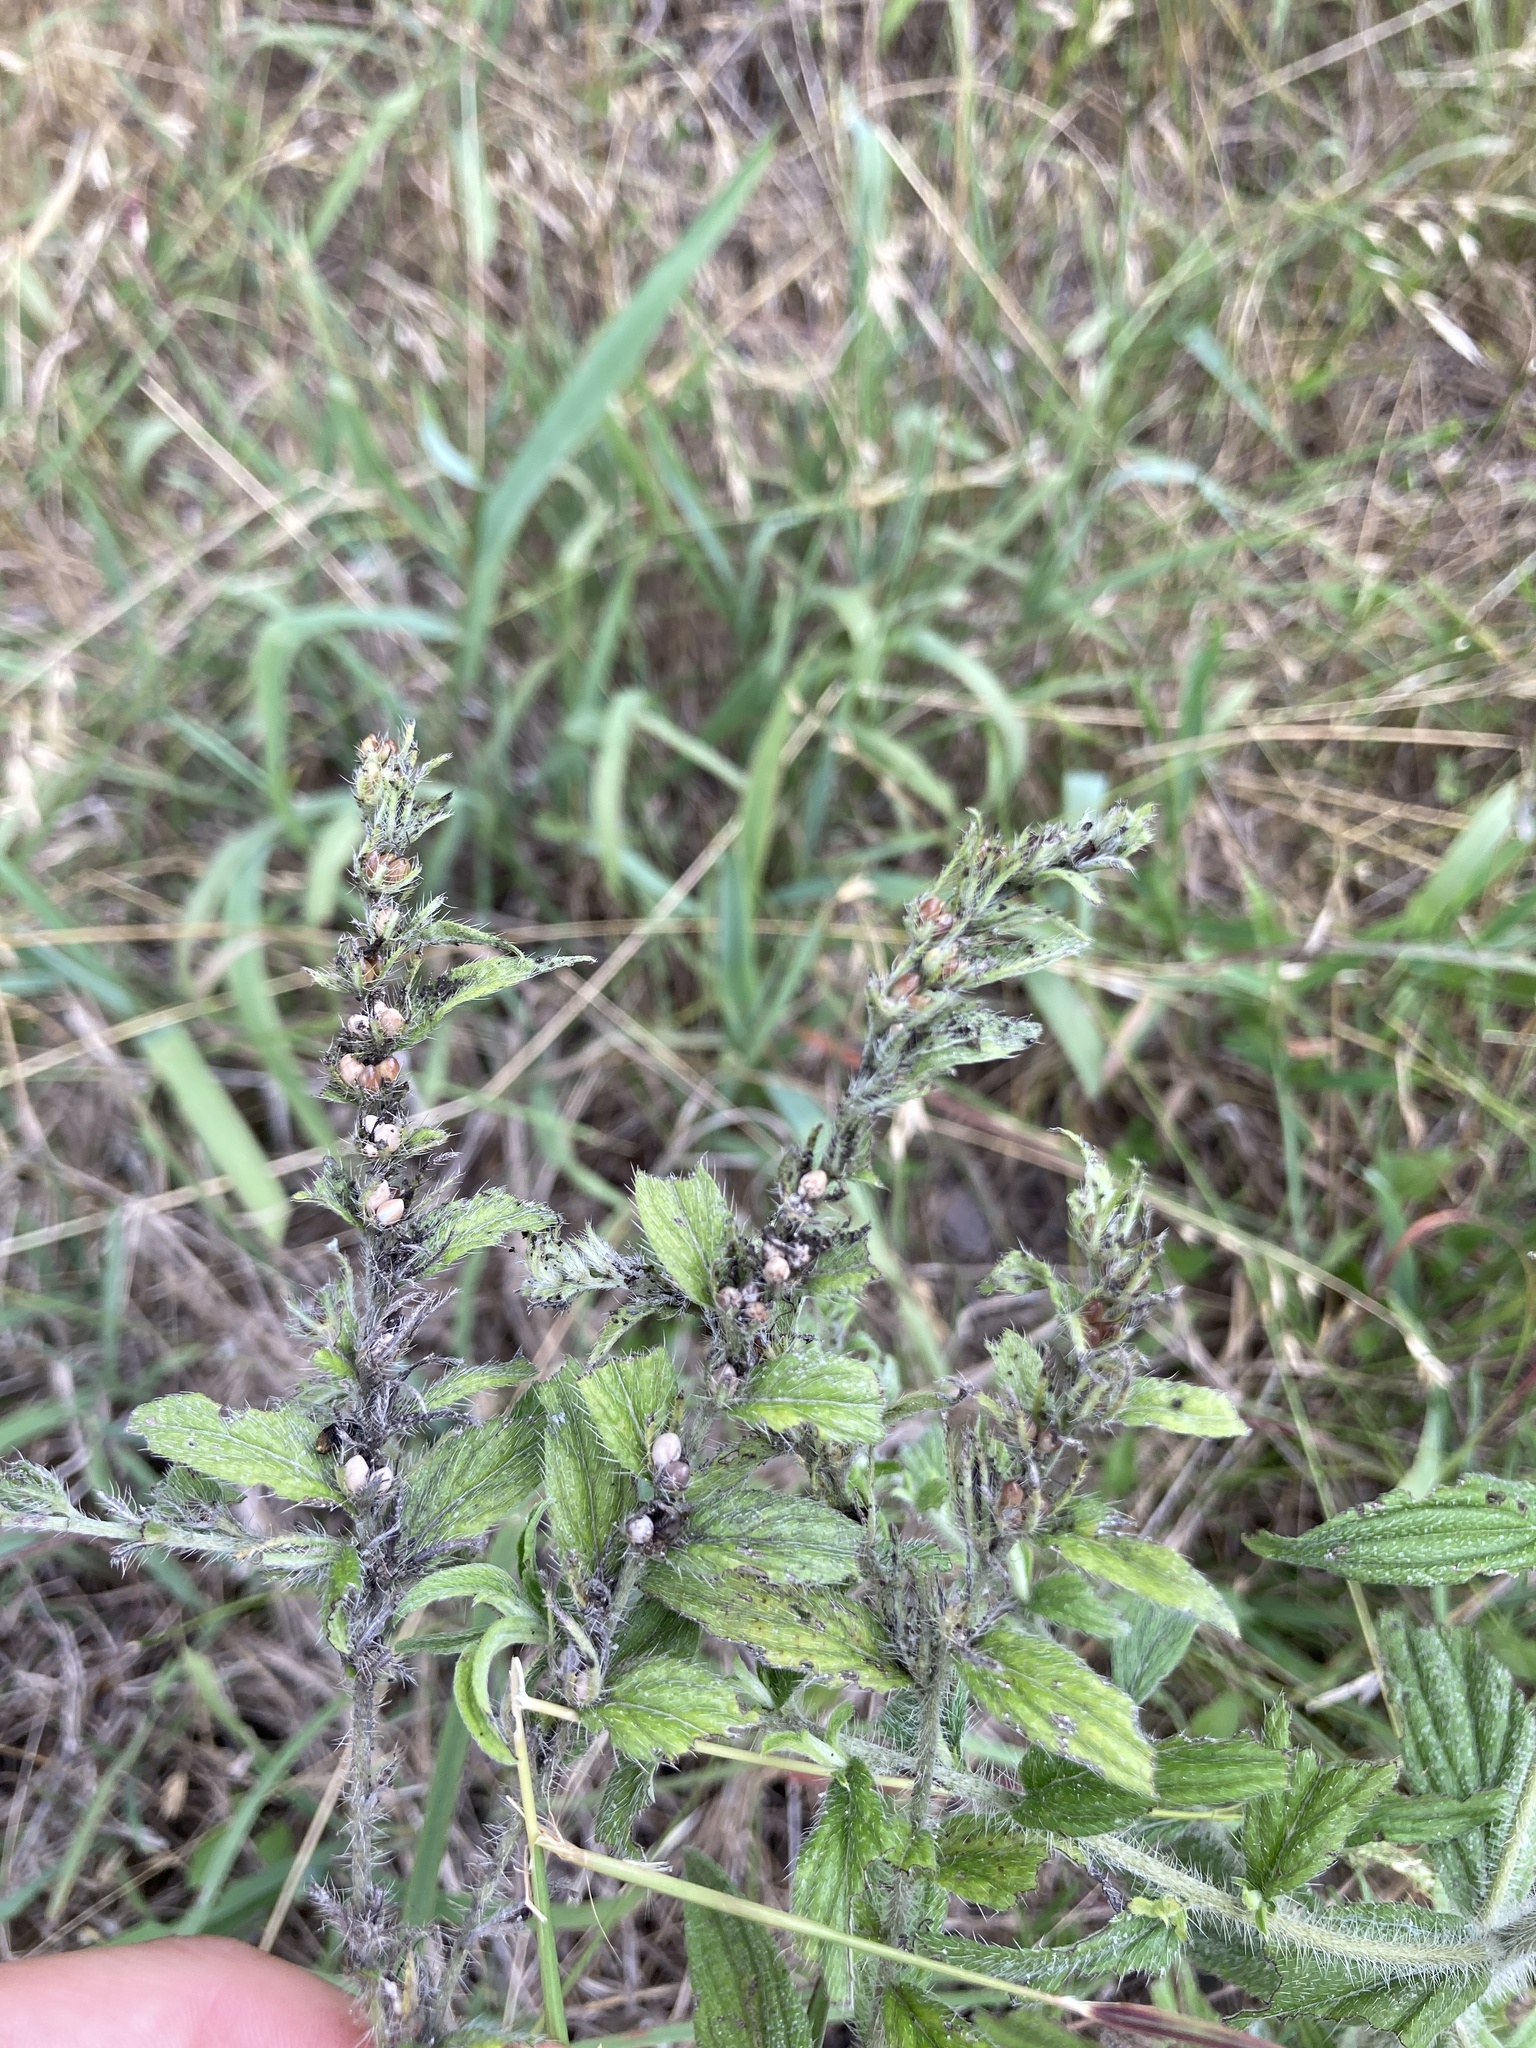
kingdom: Plantae
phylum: Tracheophyta
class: Magnoliopsida
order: Boraginales
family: Boraginaceae
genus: Lithospermum
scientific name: Lithospermum caroliniense
